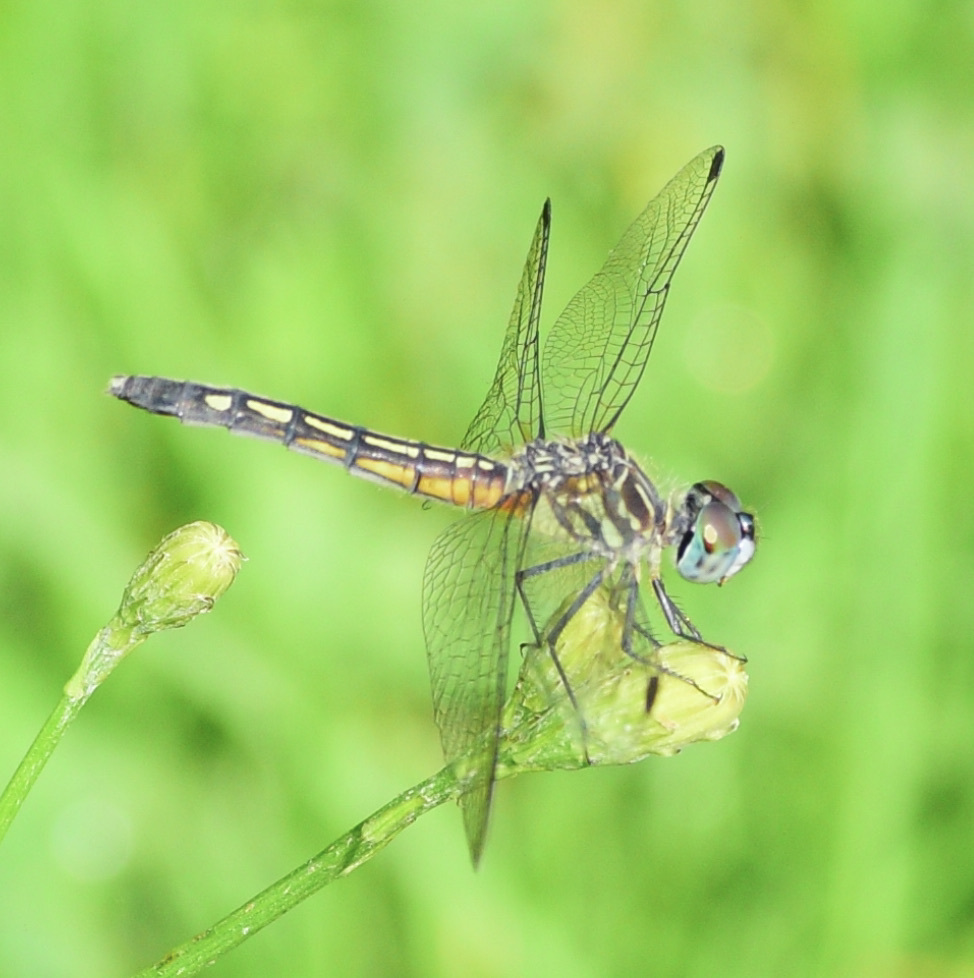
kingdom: Animalia
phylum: Arthropoda
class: Insecta
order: Odonata
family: Libellulidae
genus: Pachydiplax
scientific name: Pachydiplax longipennis
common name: Blue dasher
